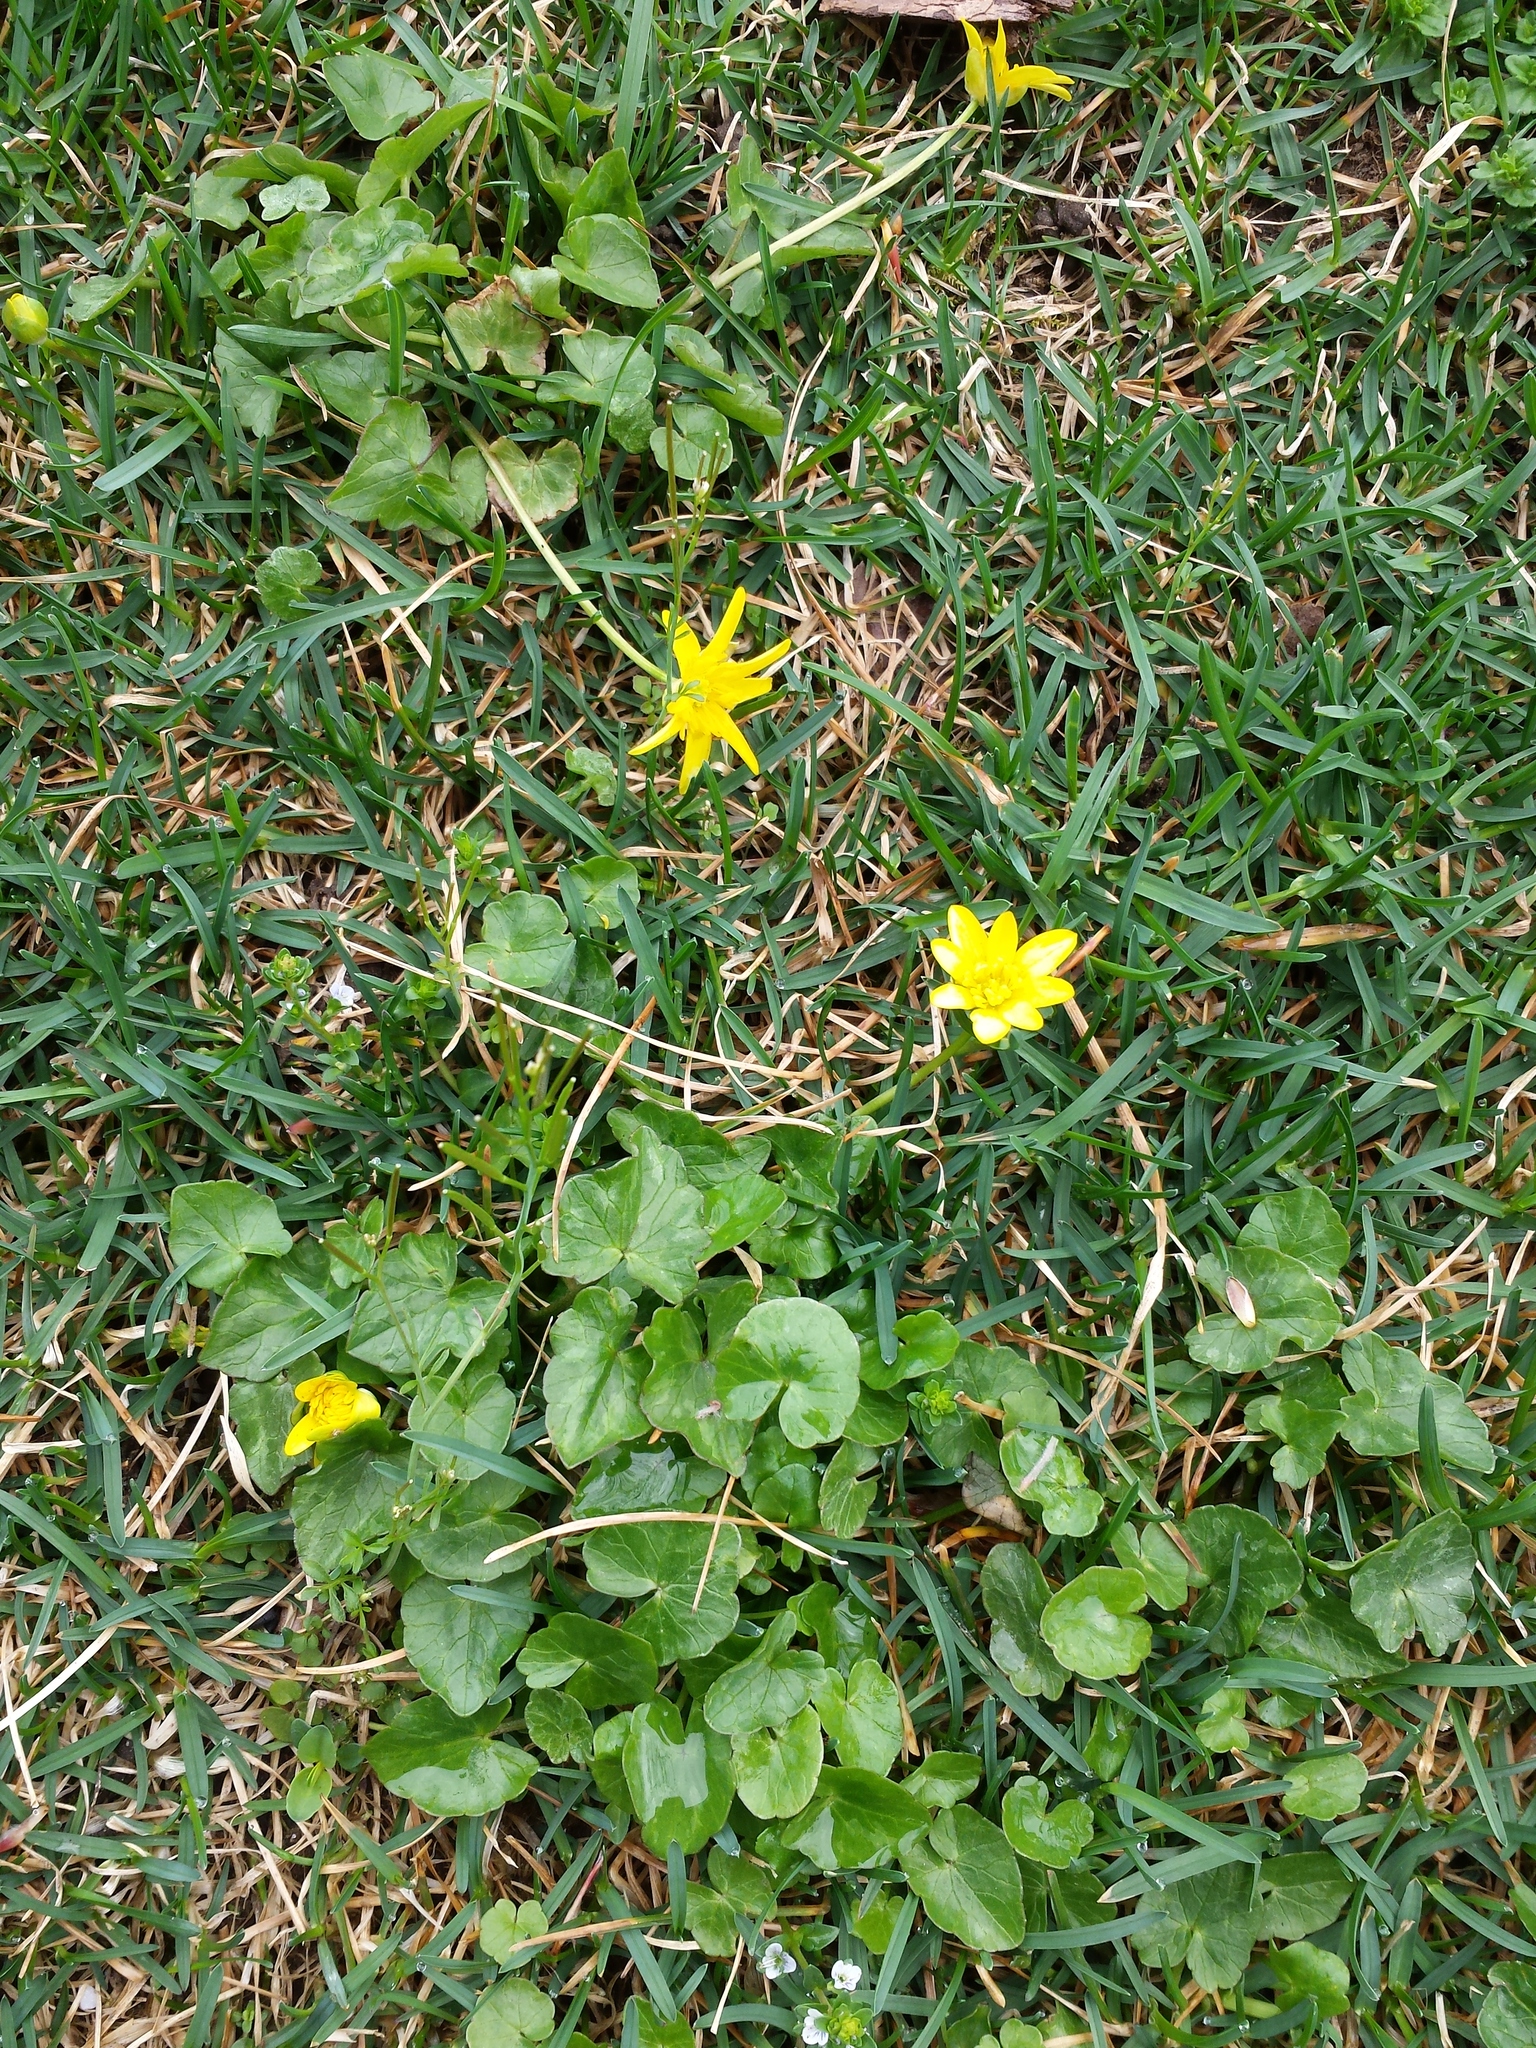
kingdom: Plantae
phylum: Tracheophyta
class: Magnoliopsida
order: Ranunculales
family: Ranunculaceae
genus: Ficaria
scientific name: Ficaria verna
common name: Lesser celandine
